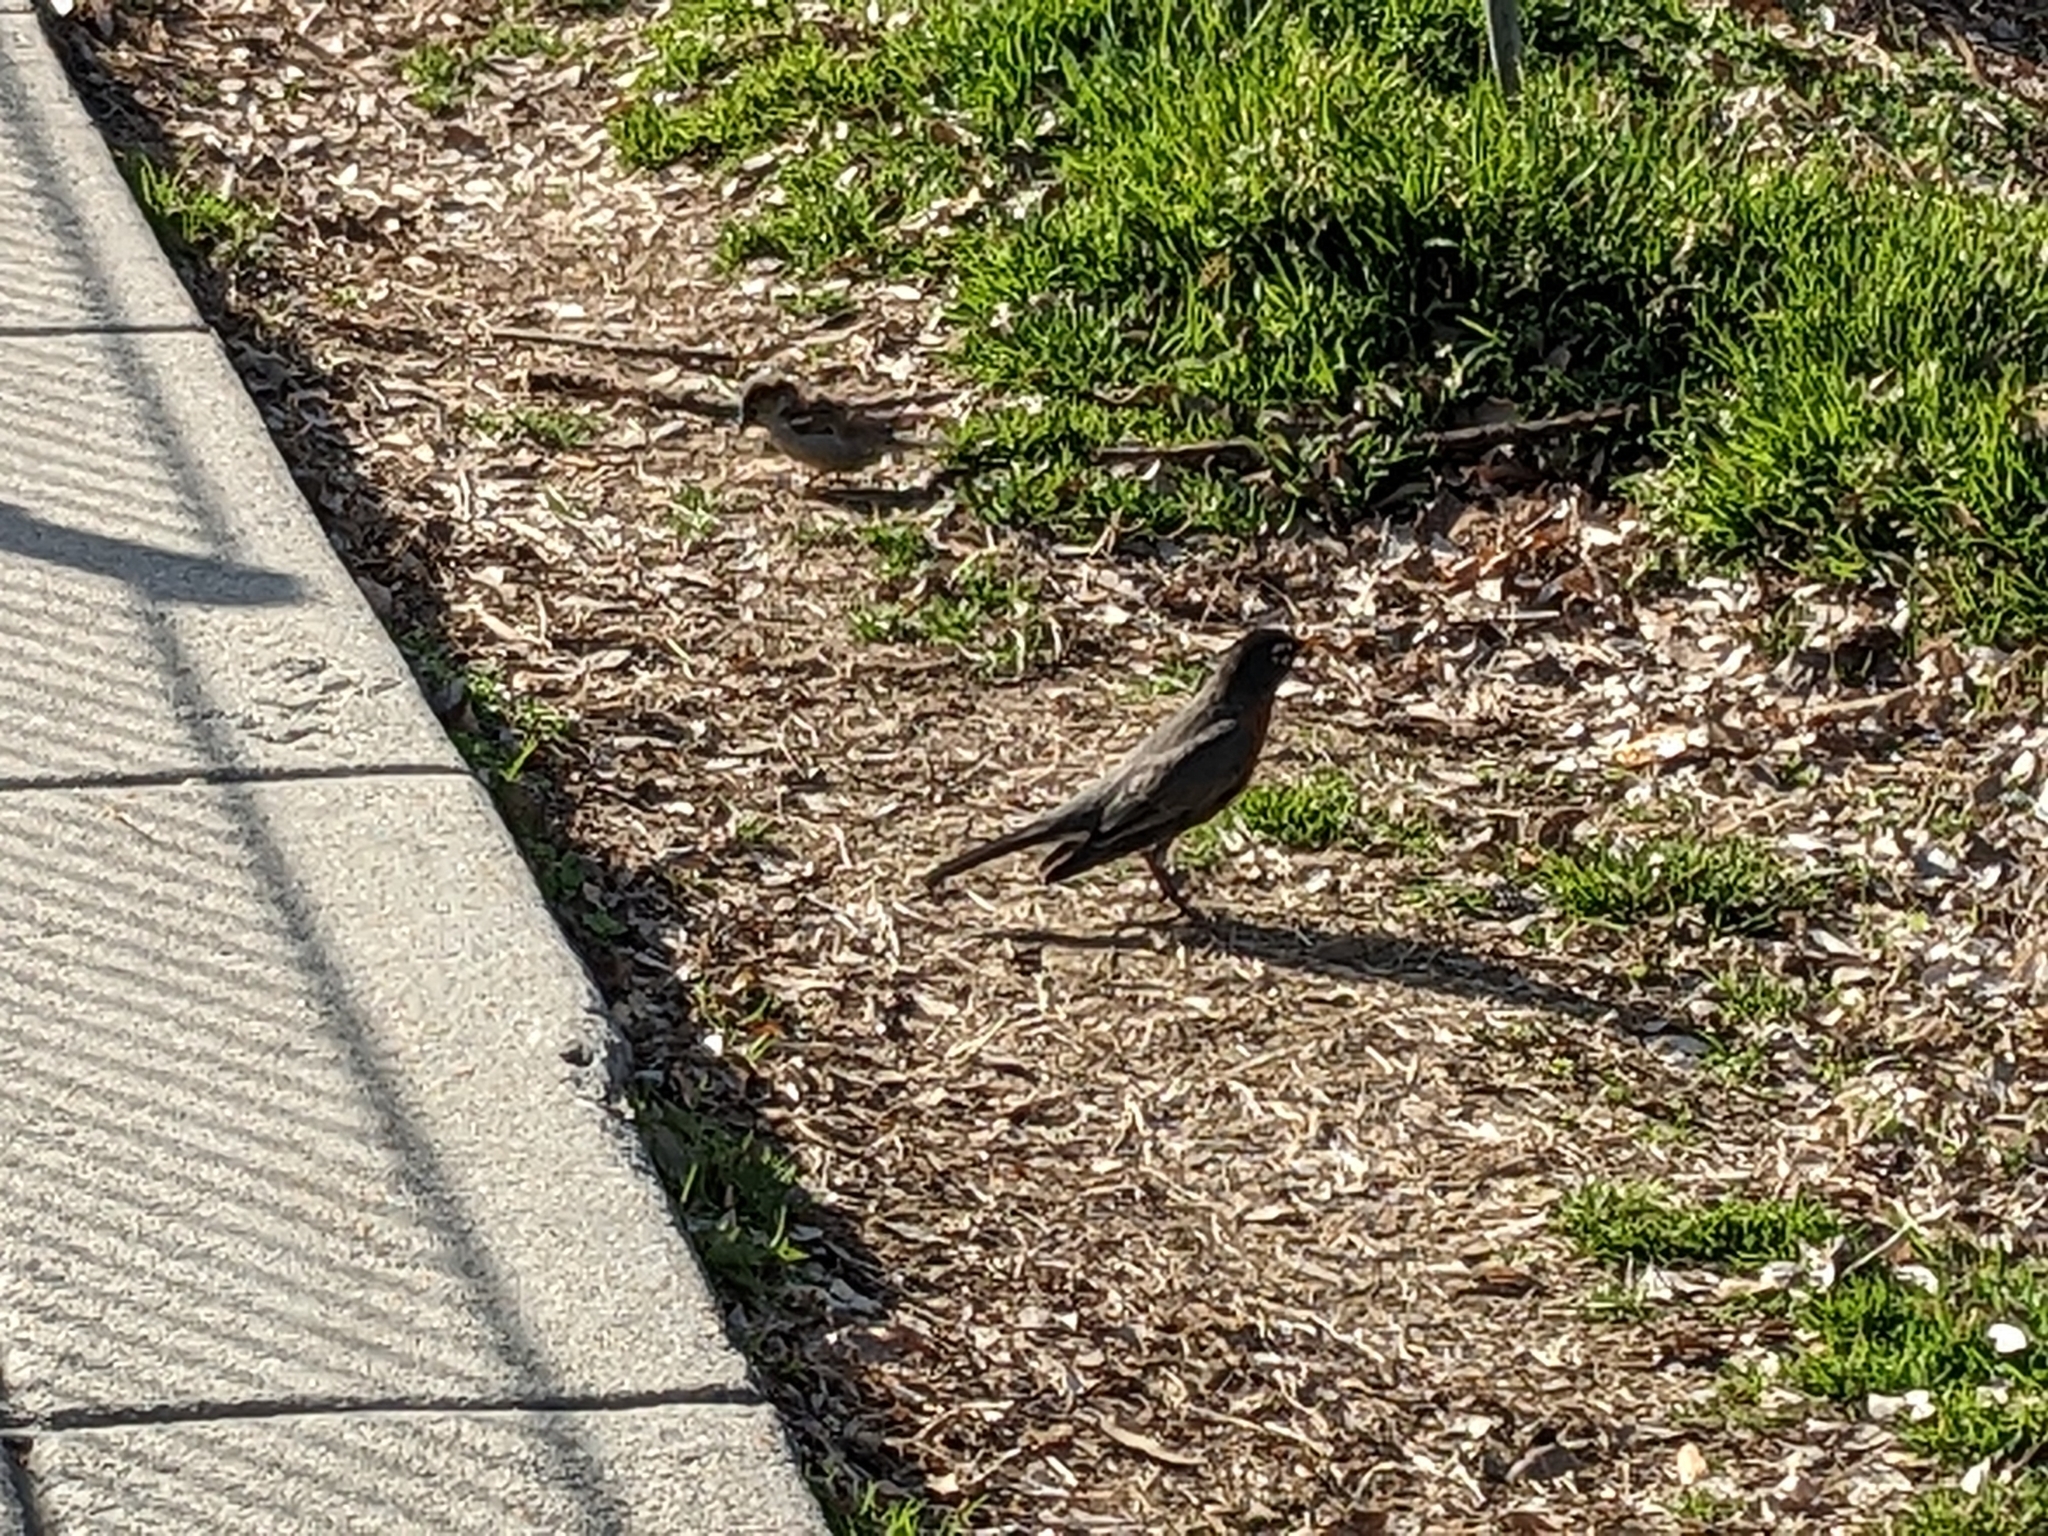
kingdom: Animalia
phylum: Chordata
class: Aves
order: Passeriformes
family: Turdidae
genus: Turdus
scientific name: Turdus migratorius
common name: American robin
